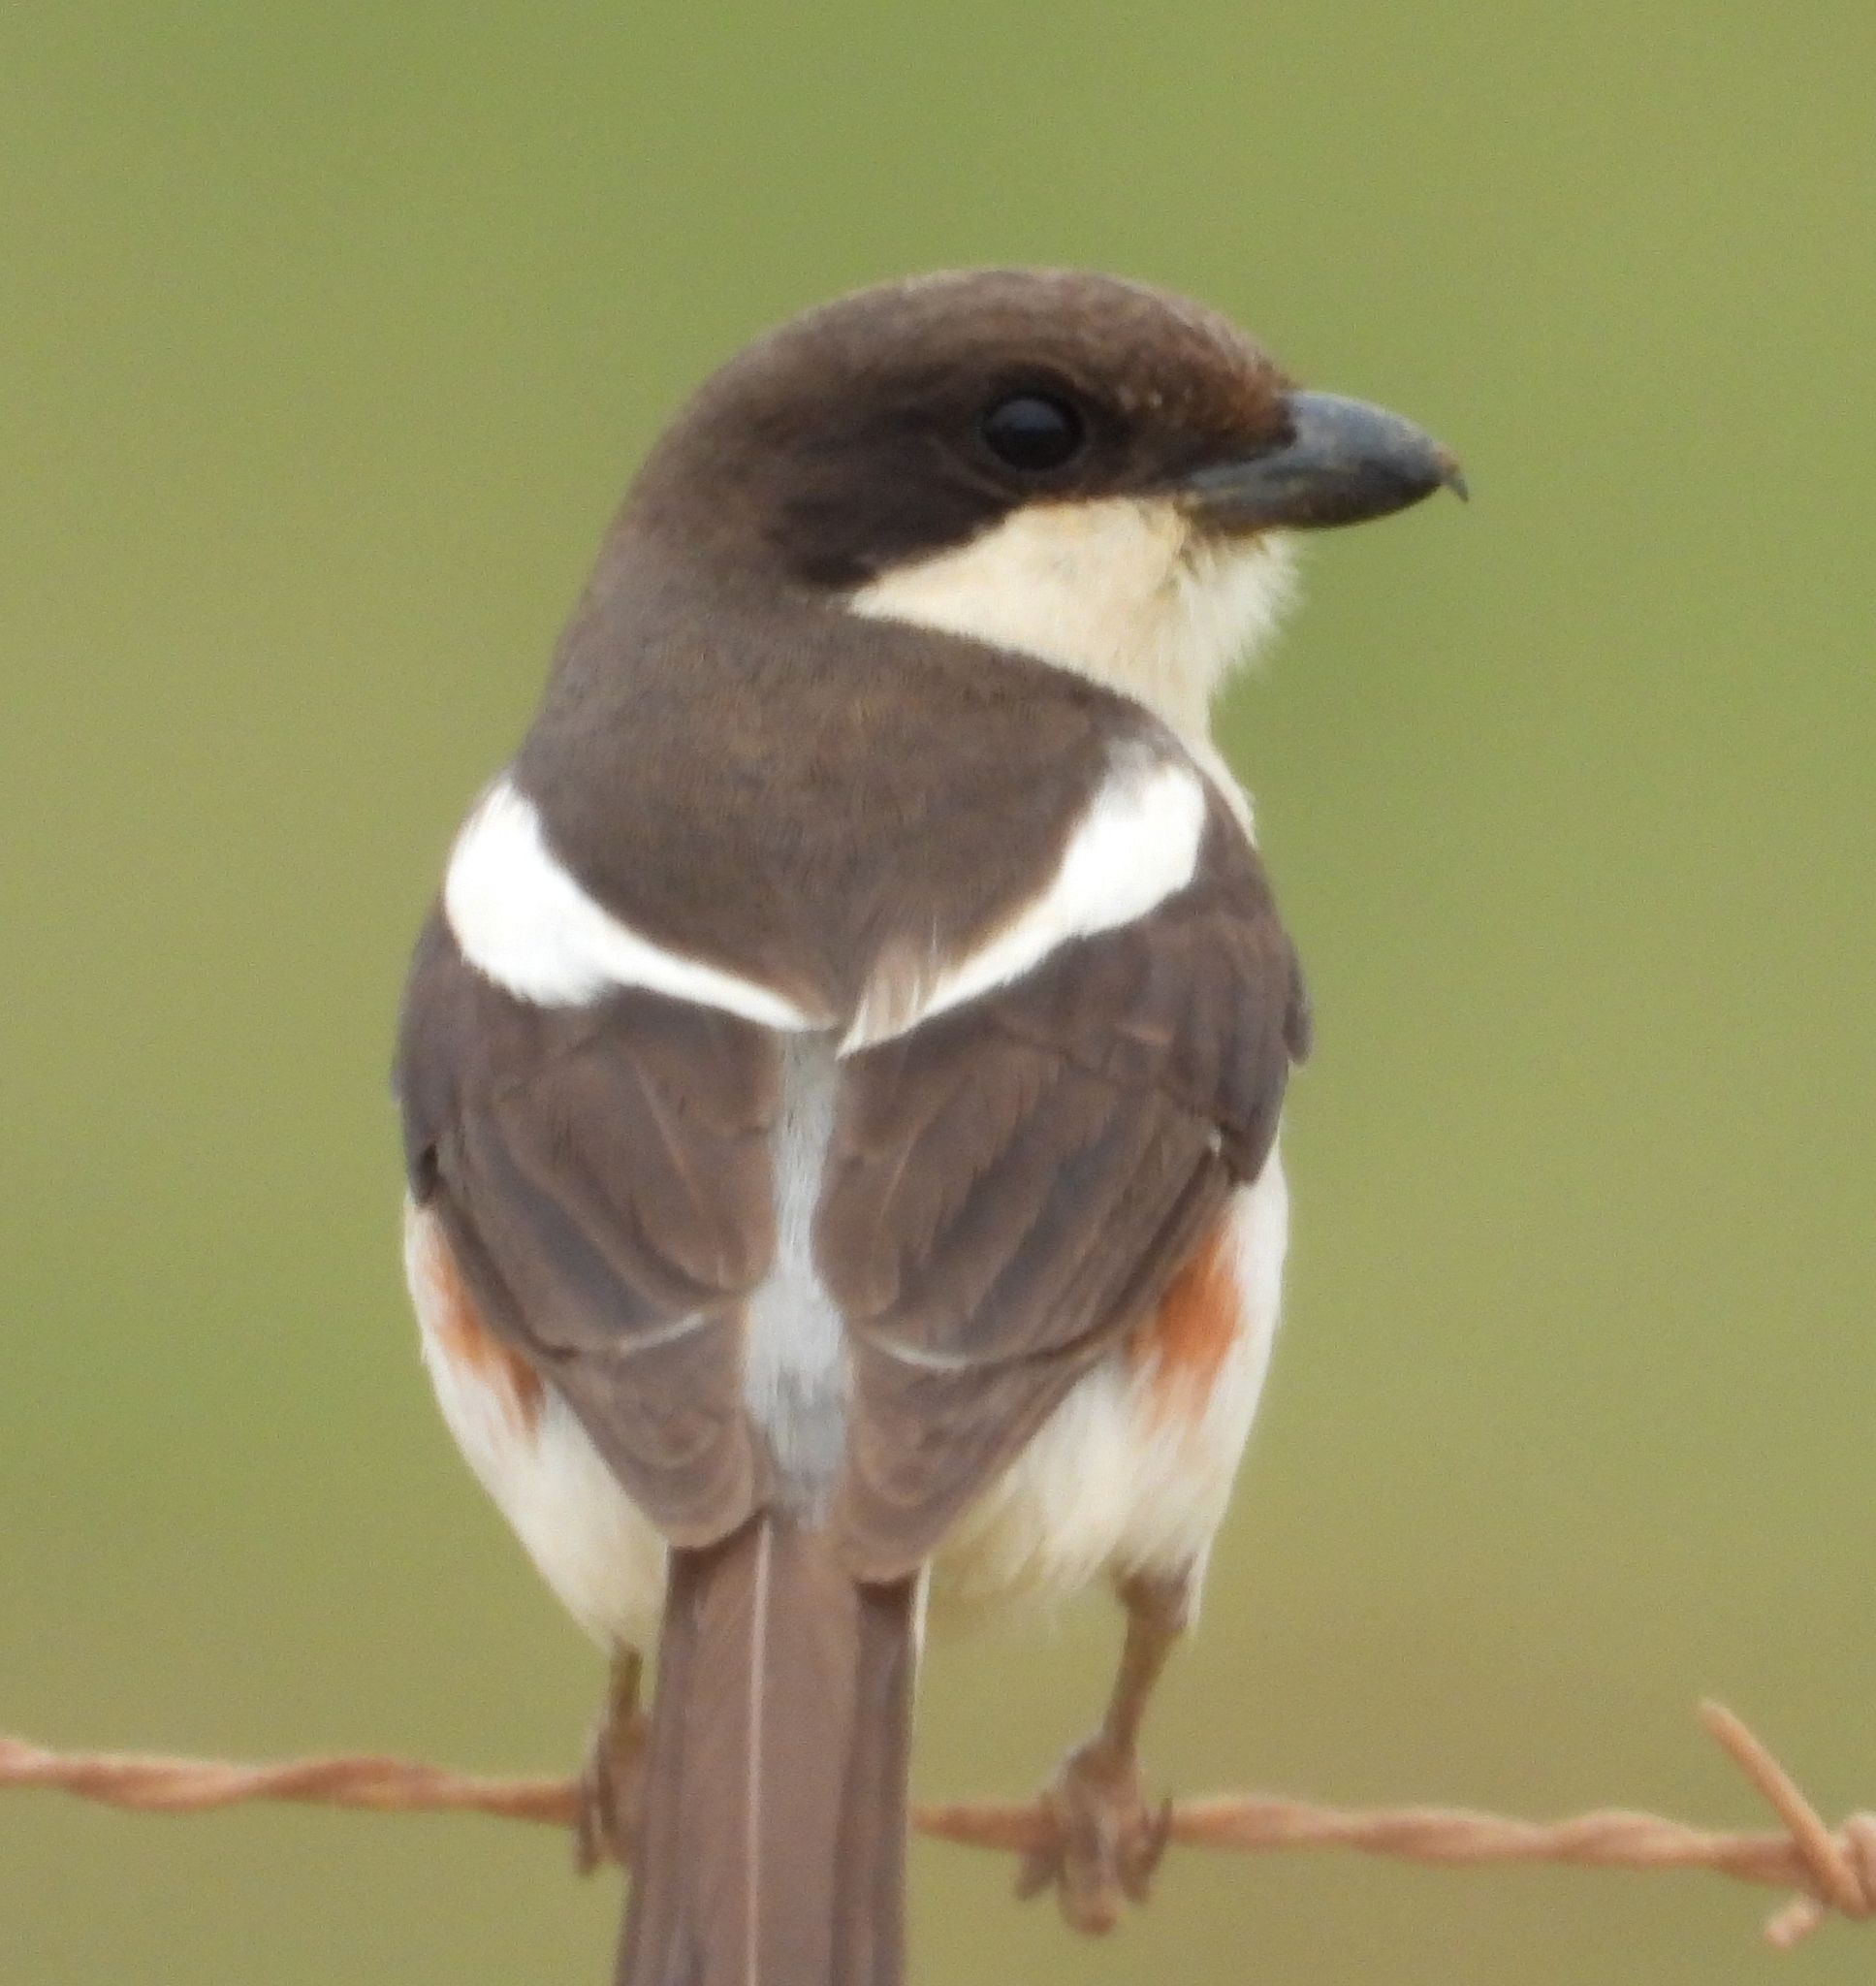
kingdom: Animalia
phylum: Chordata
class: Aves
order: Passeriformes
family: Laniidae
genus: Lanius
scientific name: Lanius collaris
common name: Southern fiscal
